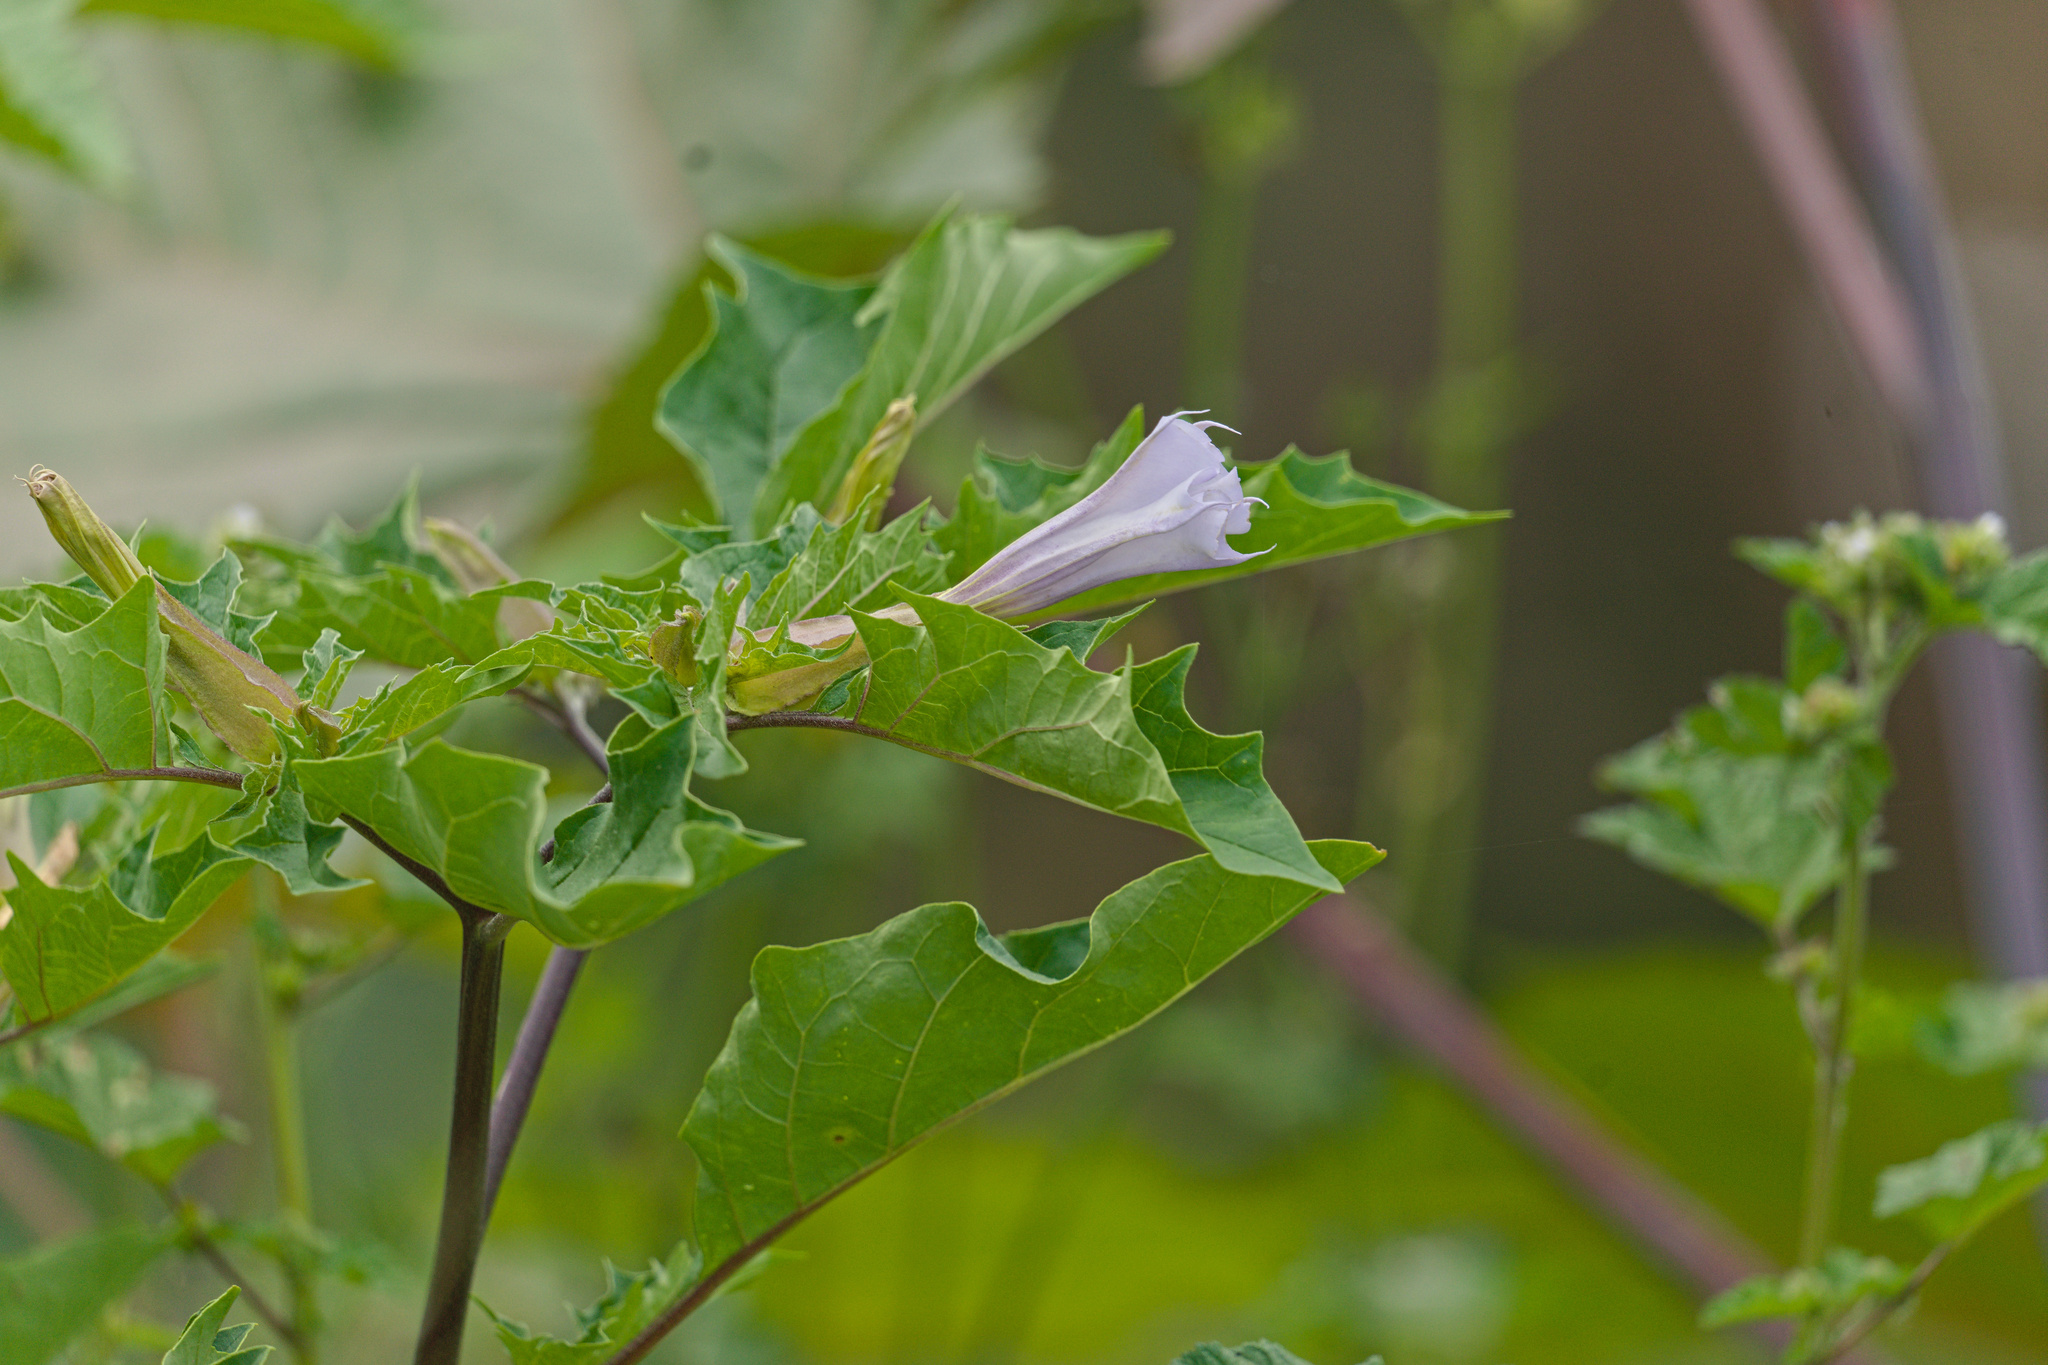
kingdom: Plantae
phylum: Tracheophyta
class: Magnoliopsida
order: Solanales
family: Solanaceae
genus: Datura
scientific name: Datura stramonium
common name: Thorn-apple
